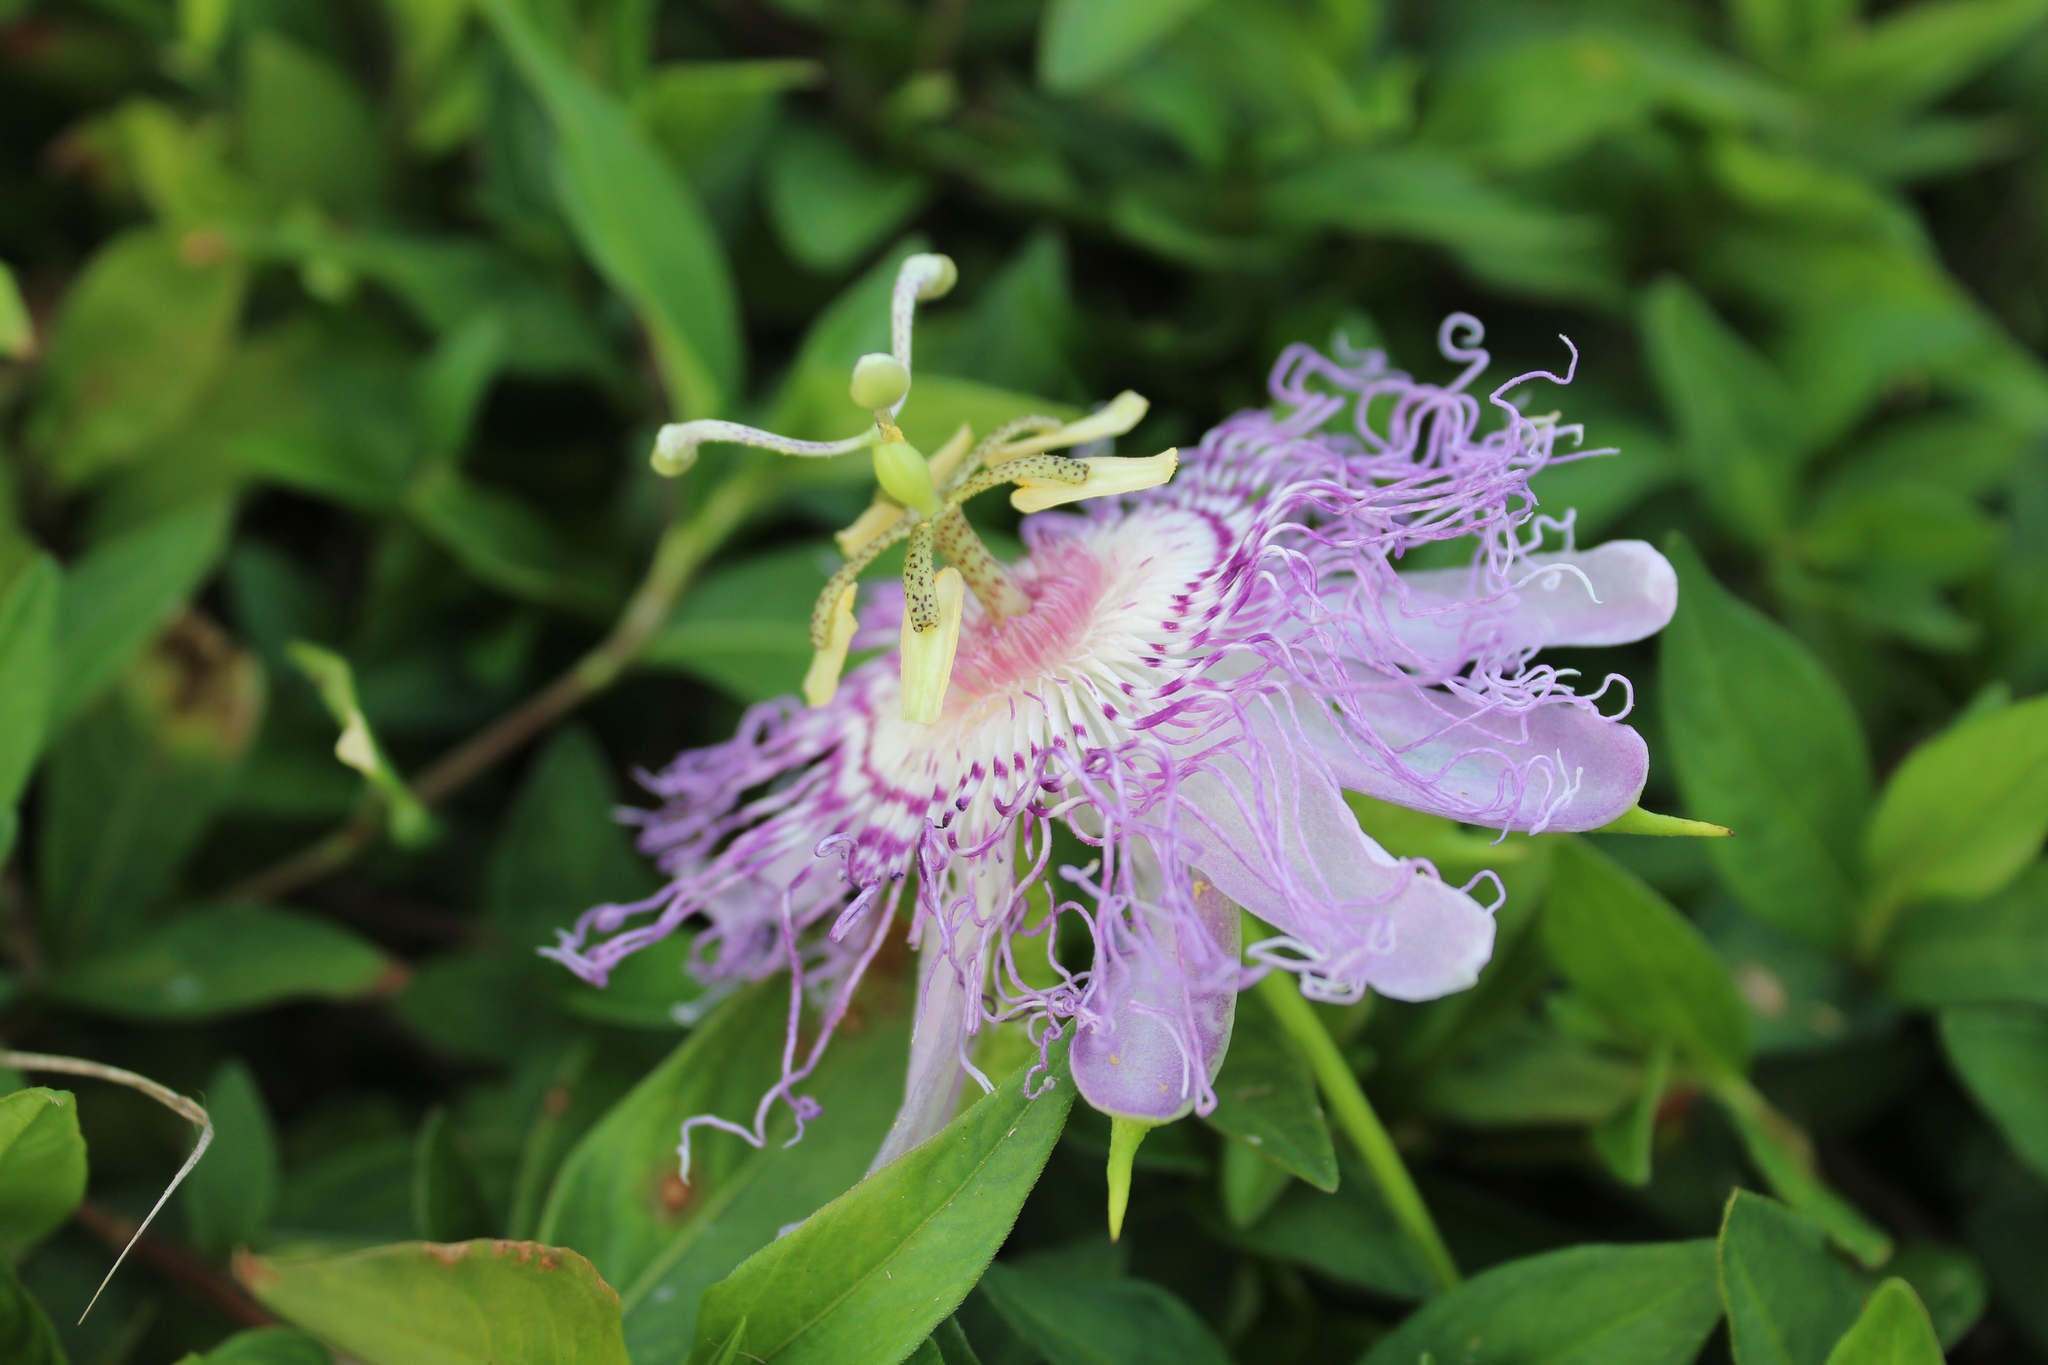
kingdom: Plantae
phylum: Tracheophyta
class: Magnoliopsida
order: Malpighiales
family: Passifloraceae
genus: Passiflora
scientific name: Passiflora incarnata
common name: Apricot-vine
